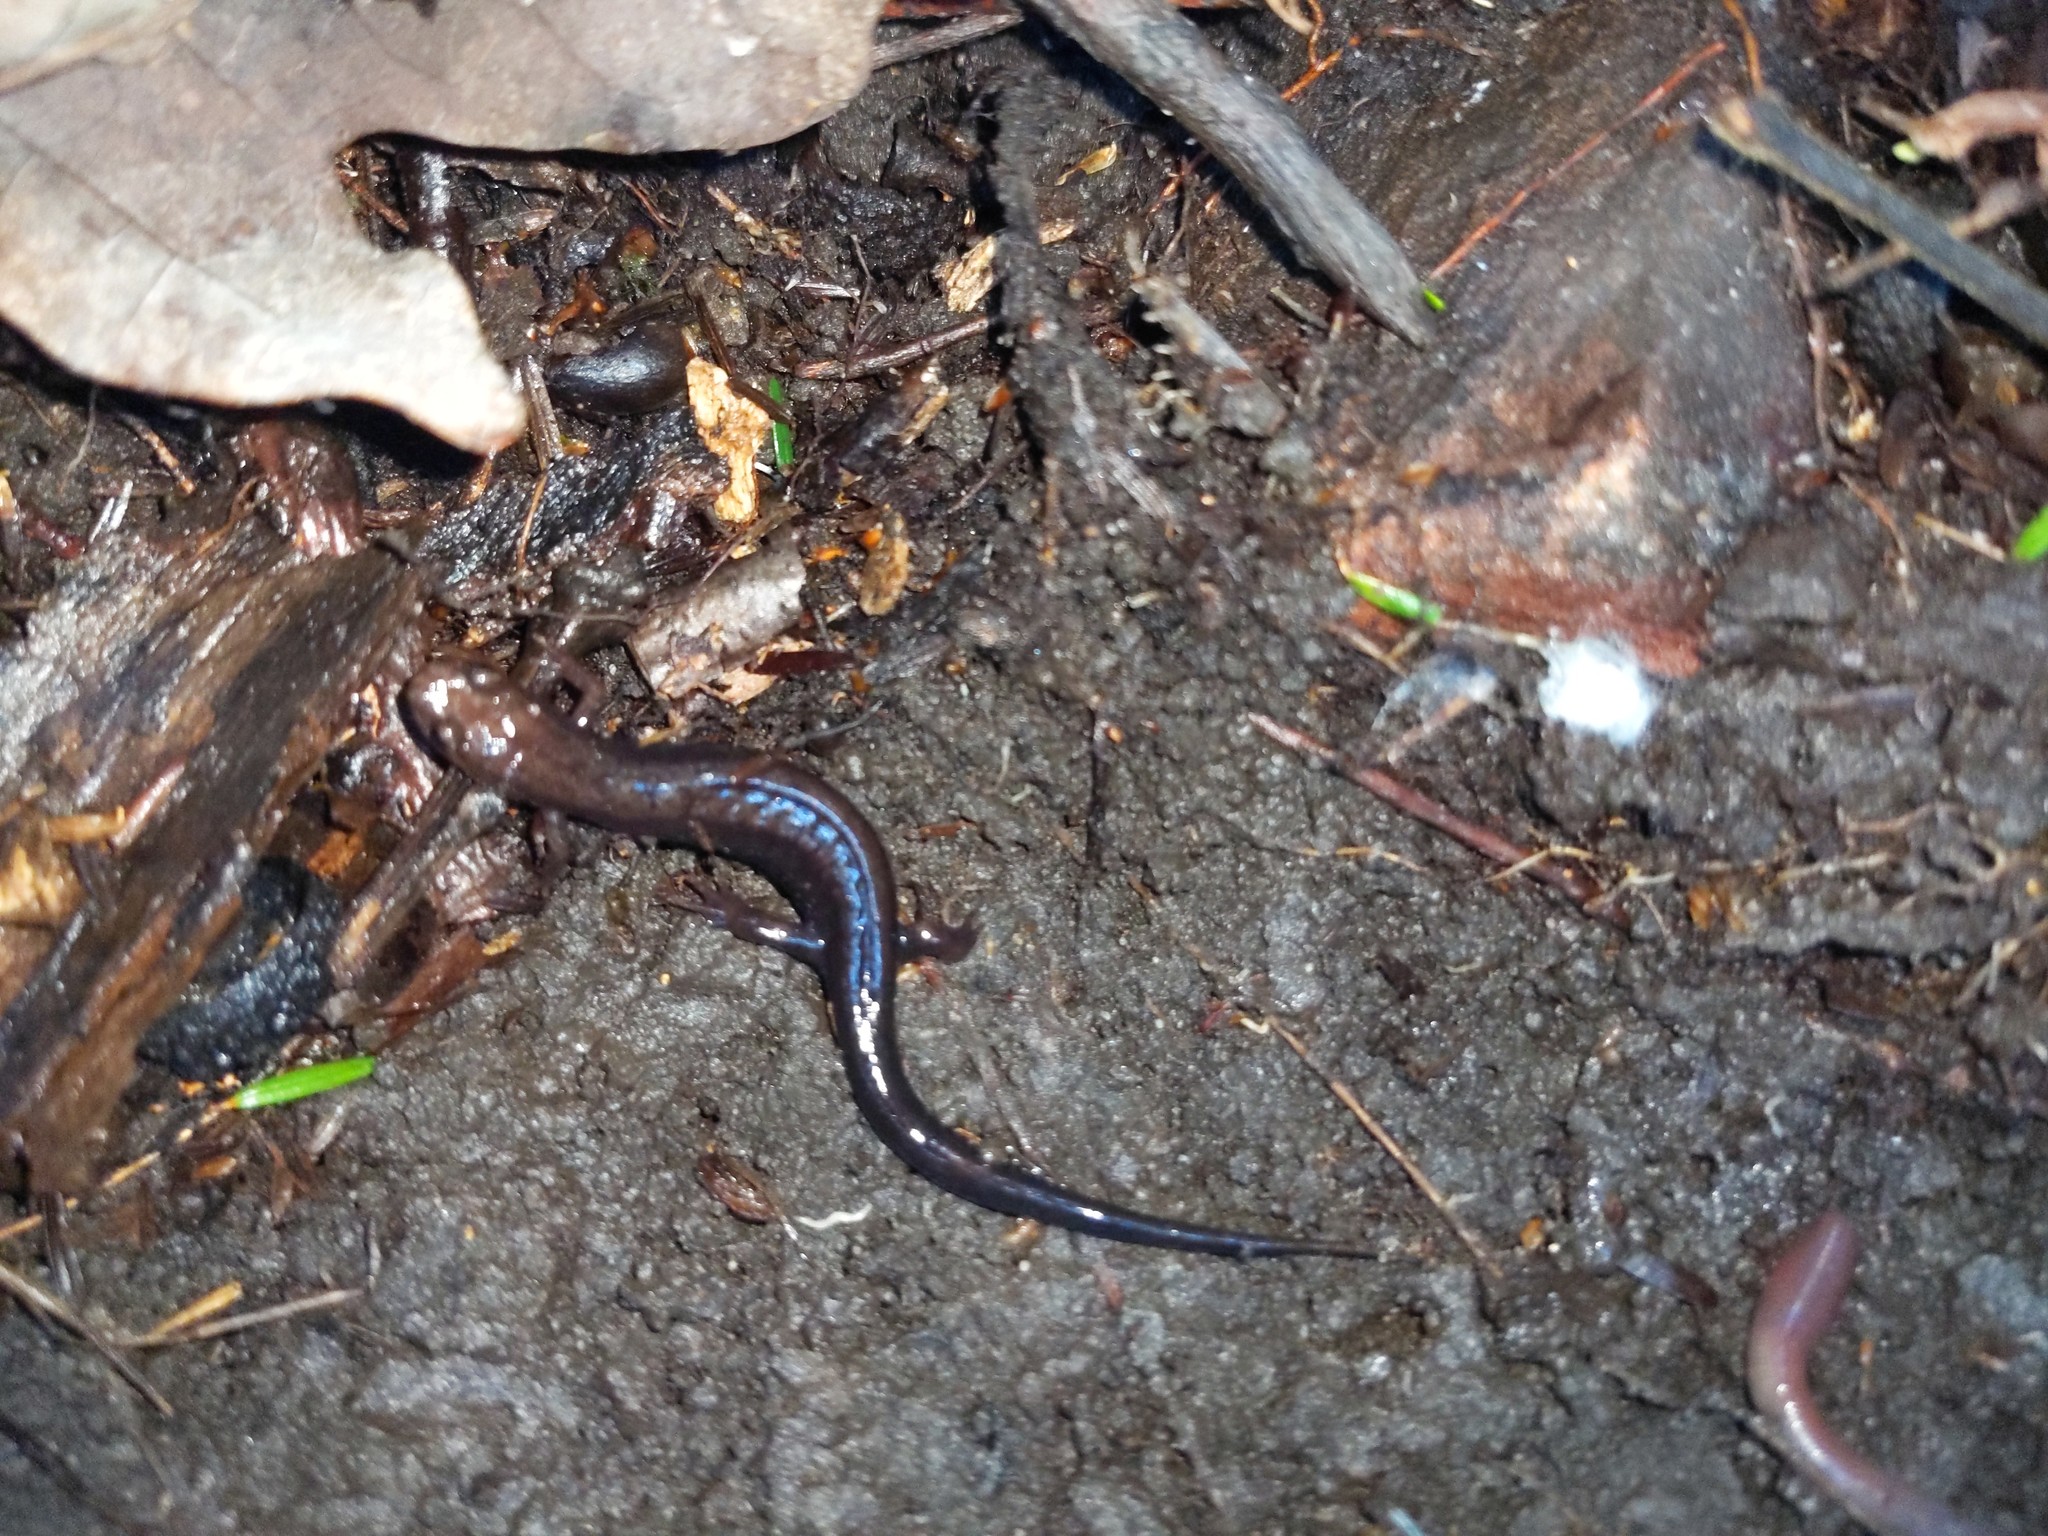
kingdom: Animalia
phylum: Chordata
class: Amphibia
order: Caudata
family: Plethodontidae
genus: Desmognathus
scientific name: Desmognathus ochrophaeus
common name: Allegheny mountain dusky salamander
